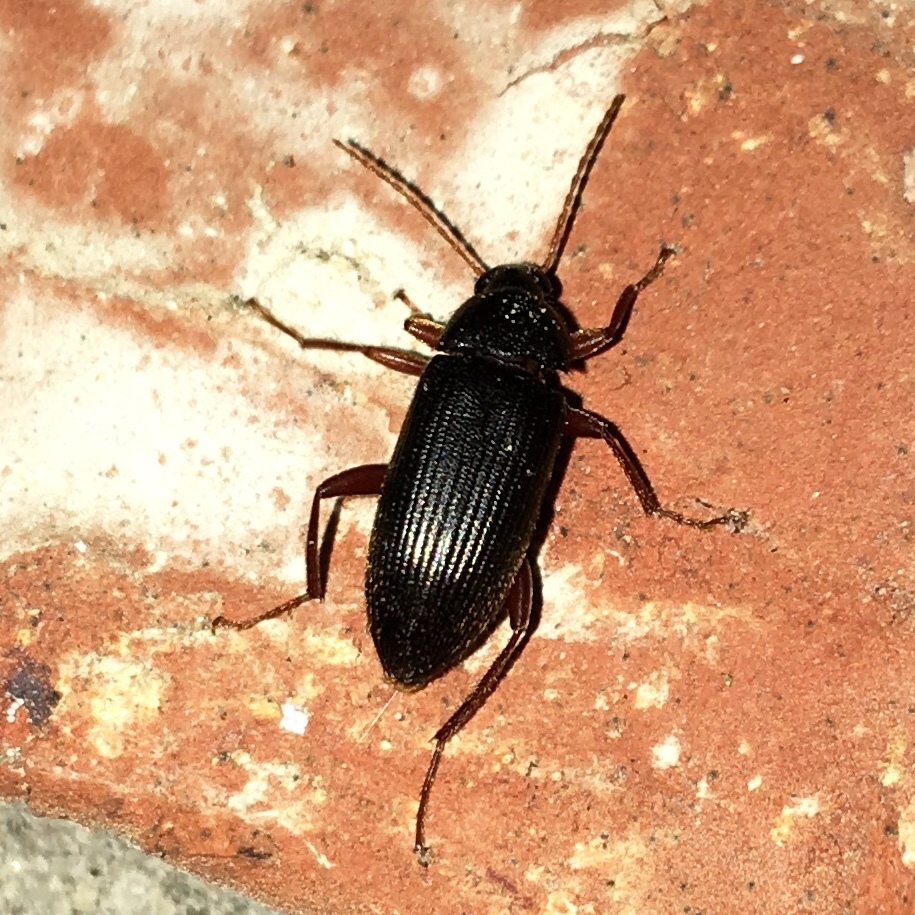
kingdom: Animalia
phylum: Arthropoda
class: Insecta
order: Coleoptera
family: Tenebrionidae
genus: Lobopoda
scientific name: Lobopoda erythrocnemis
